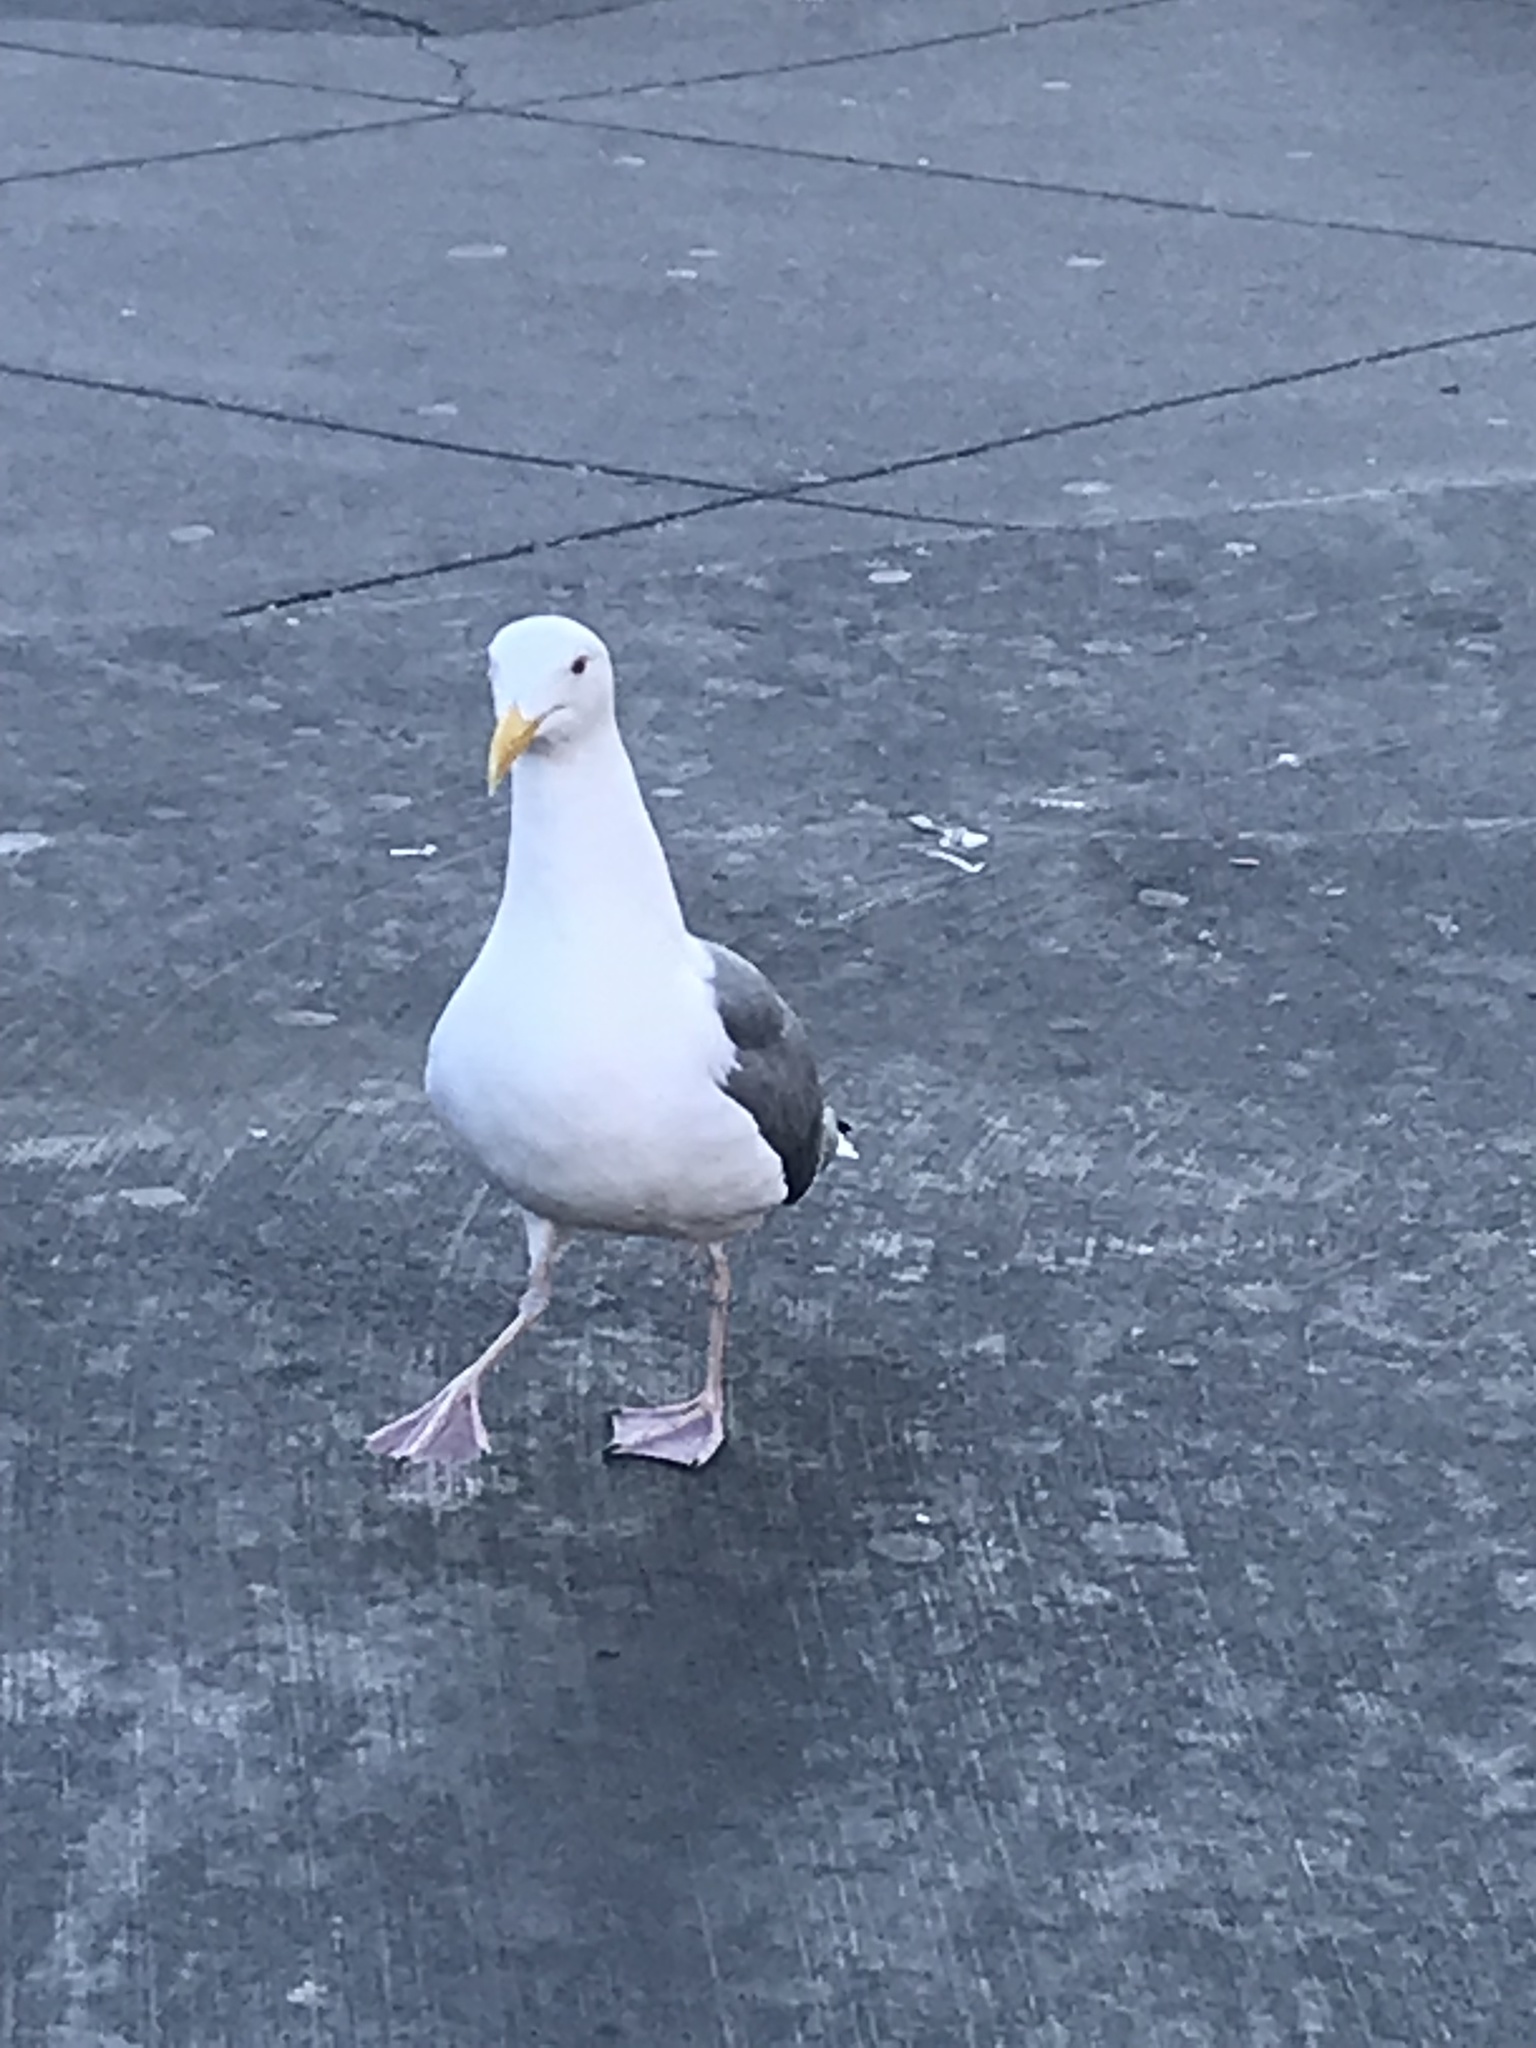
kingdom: Animalia
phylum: Chordata
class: Aves
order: Charadriiformes
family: Laridae
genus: Larus
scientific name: Larus occidentalis
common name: Western gull
